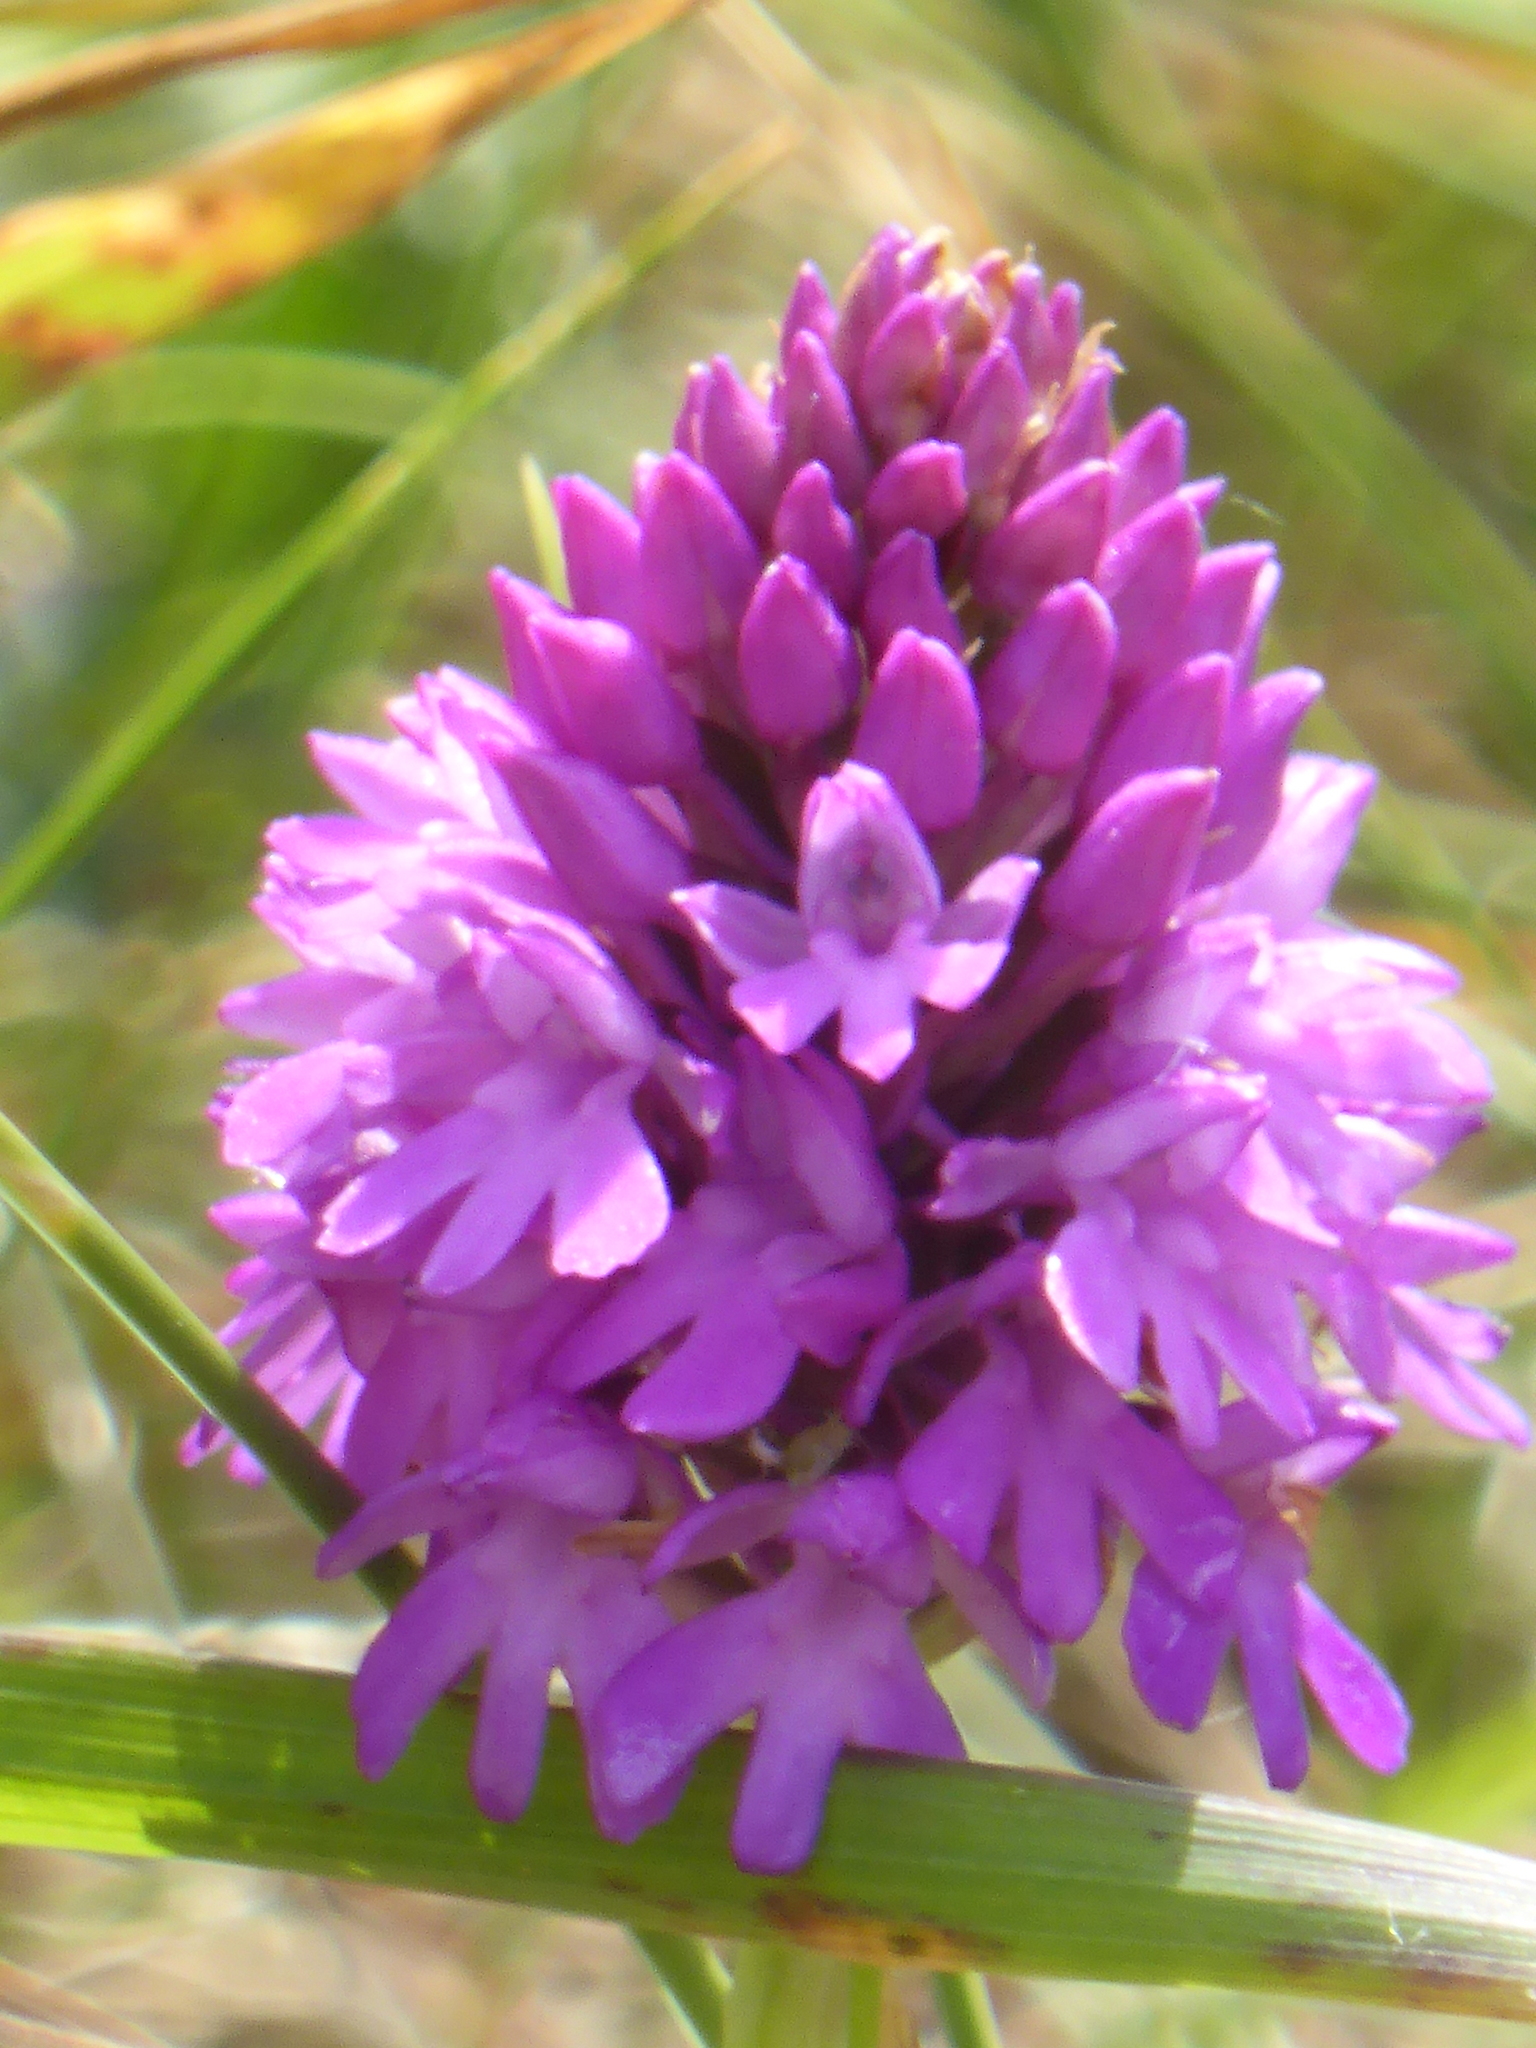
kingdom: Plantae
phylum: Tracheophyta
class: Liliopsida
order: Asparagales
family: Orchidaceae
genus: Anacamptis
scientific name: Anacamptis pyramidalis
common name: Pyramidal orchid
